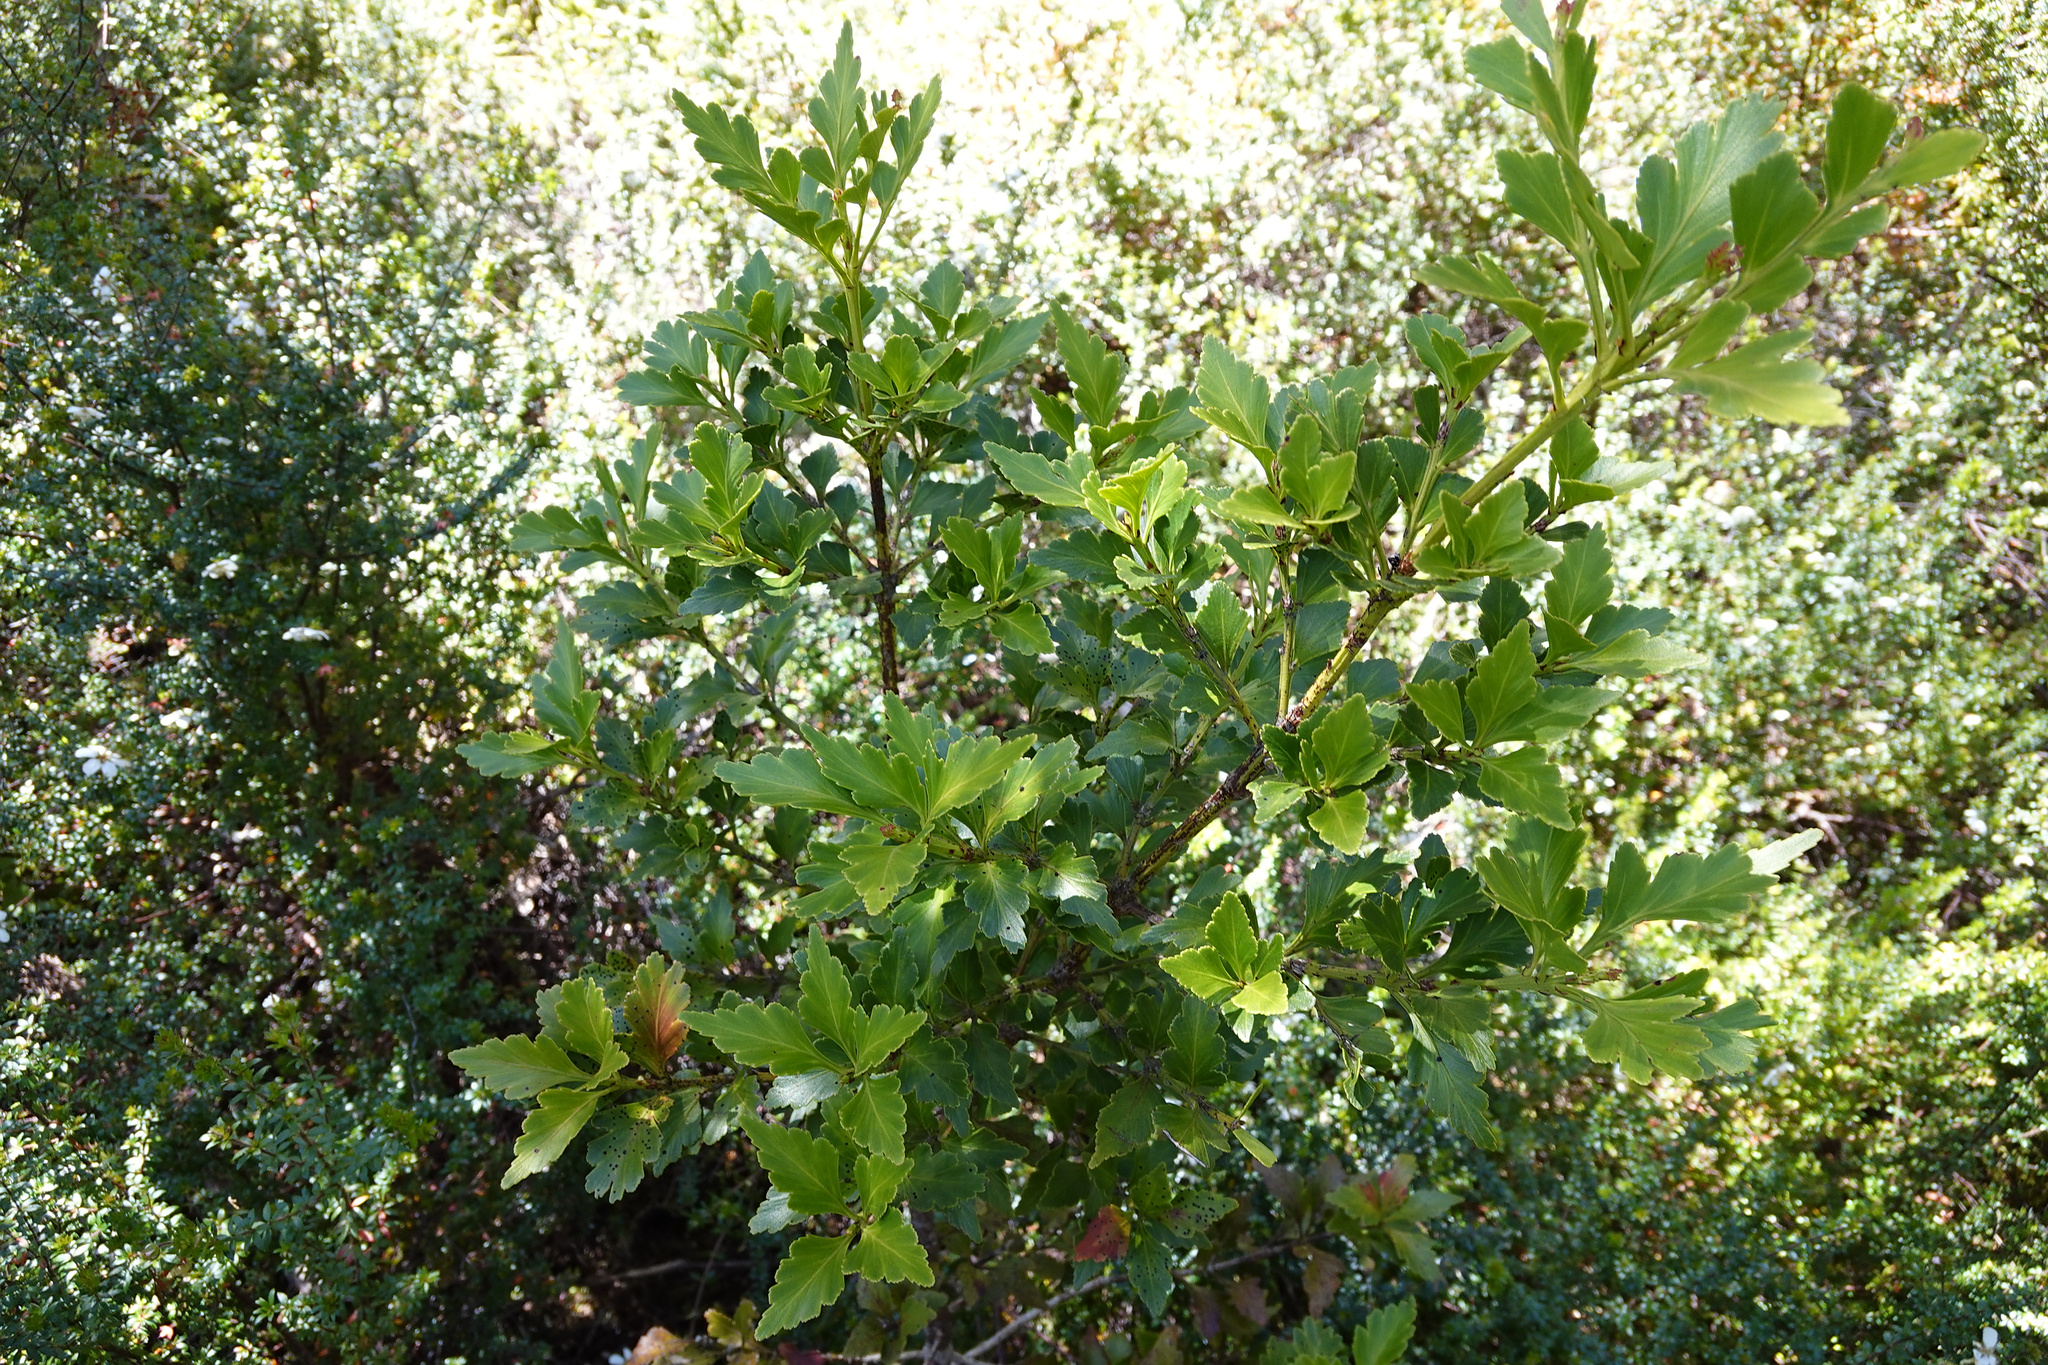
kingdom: Plantae
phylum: Tracheophyta
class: Pinopsida
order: Pinales
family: Phyllocladaceae
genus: Phyllocladus
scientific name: Phyllocladus aspleniifolius
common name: Celery-top pine
